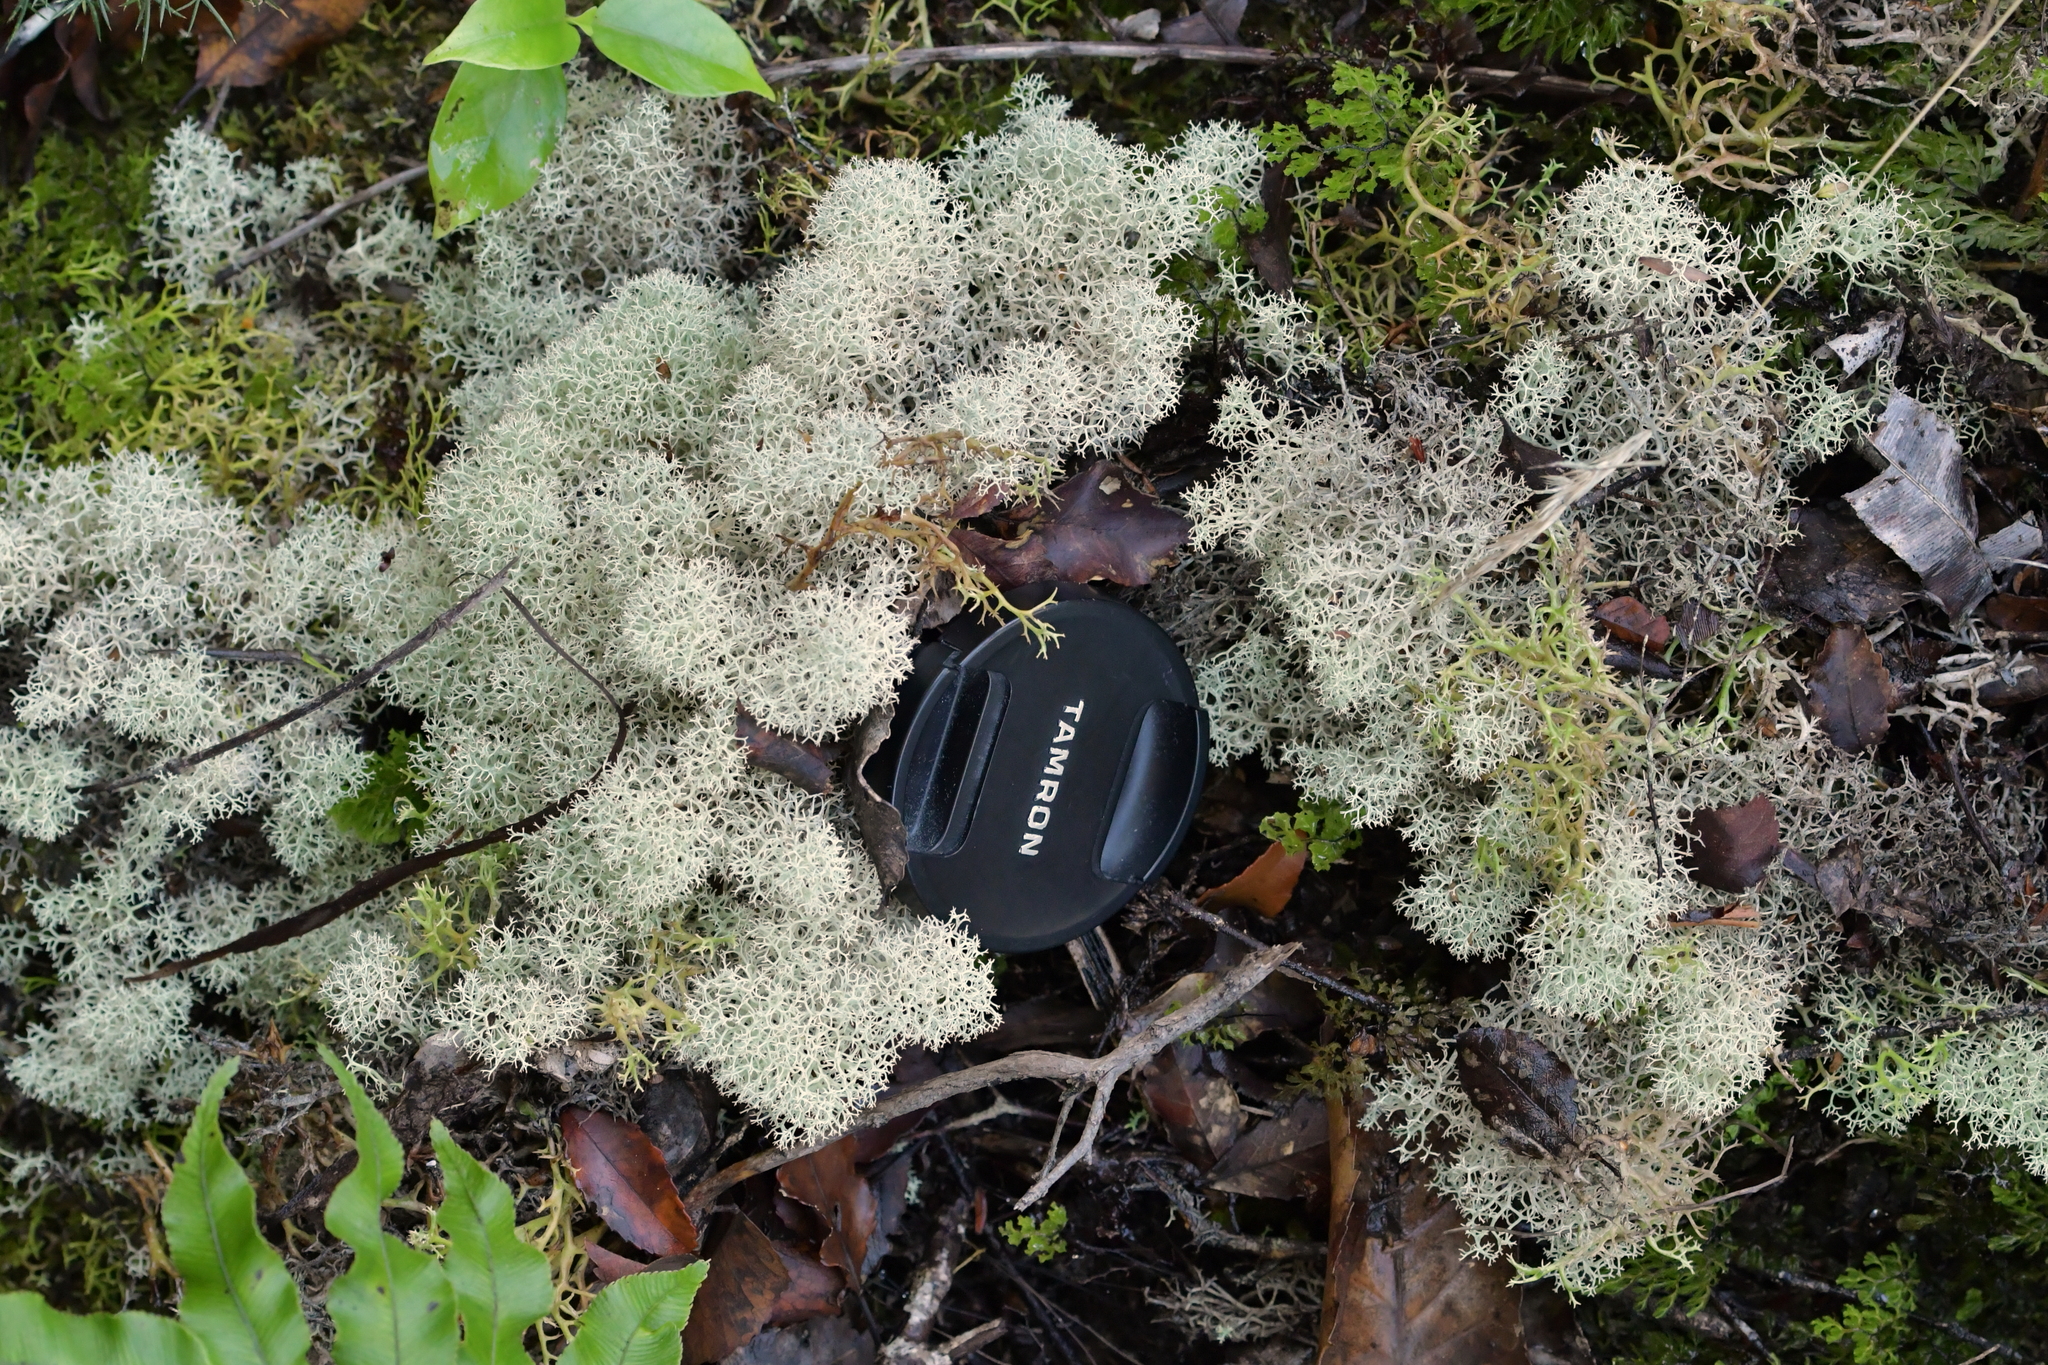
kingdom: Fungi
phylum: Ascomycota
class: Lecanoromycetes
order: Lecanorales
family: Cladoniaceae
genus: Cladonia
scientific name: Cladonia confusa
